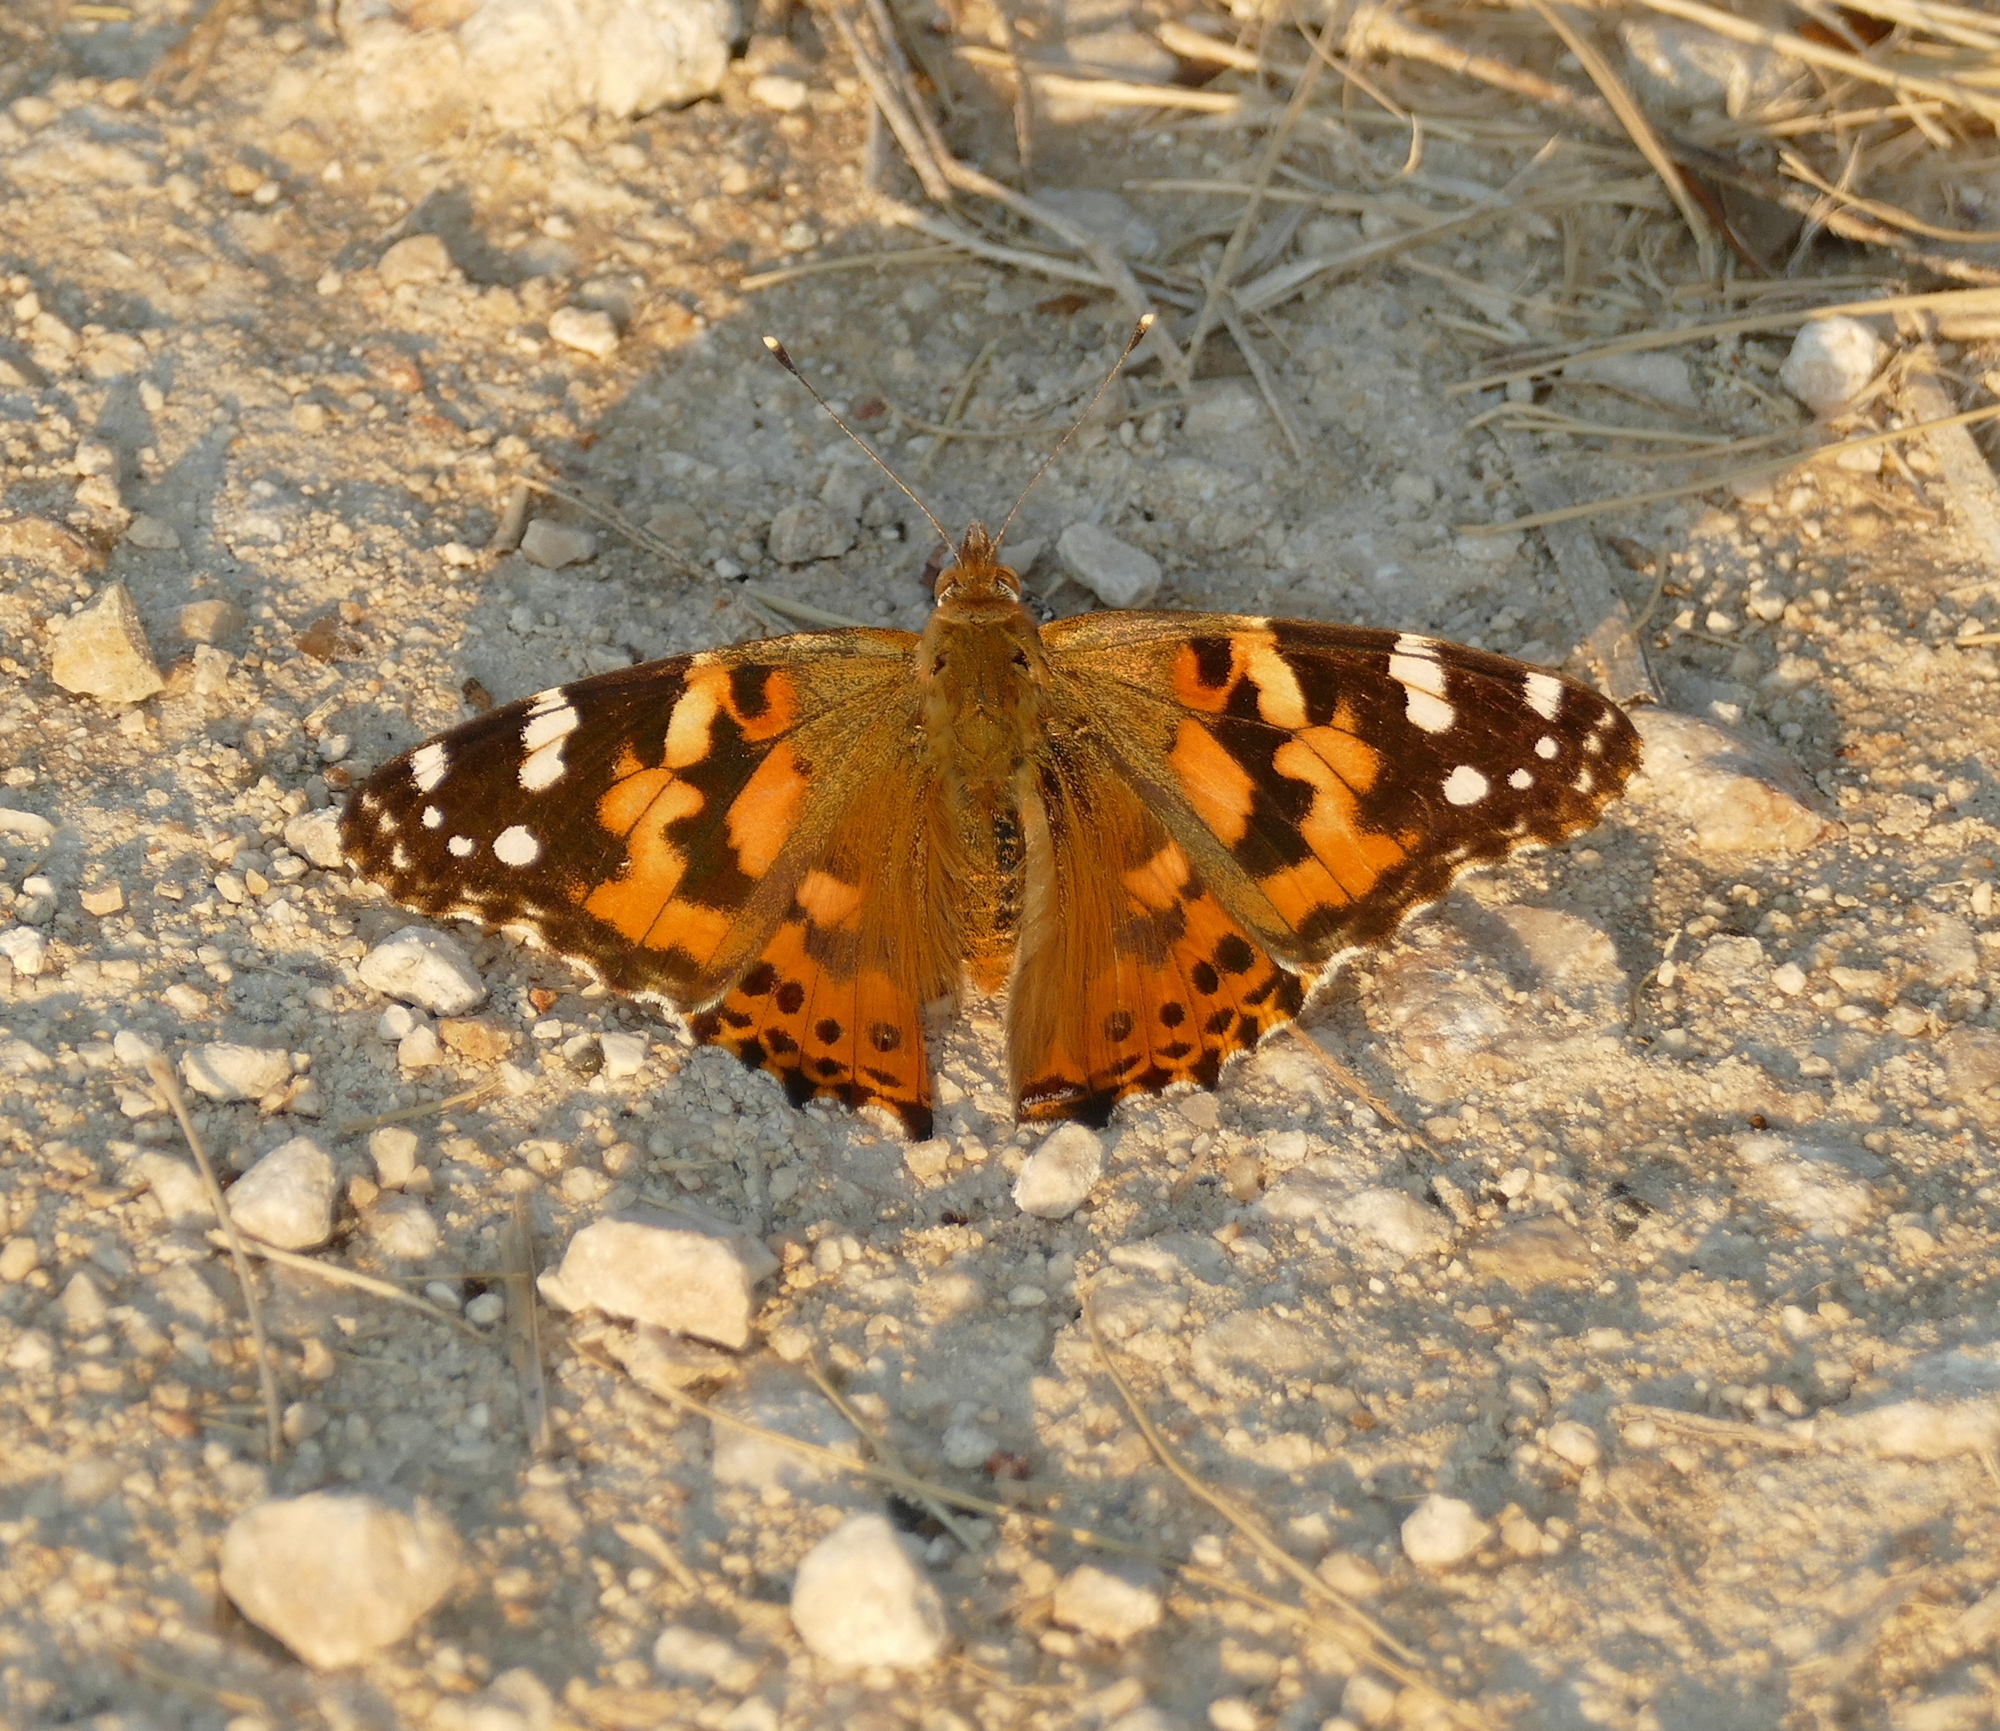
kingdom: Animalia
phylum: Arthropoda
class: Insecta
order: Lepidoptera
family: Nymphalidae
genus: Vanessa
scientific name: Vanessa cardui
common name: Painted lady
